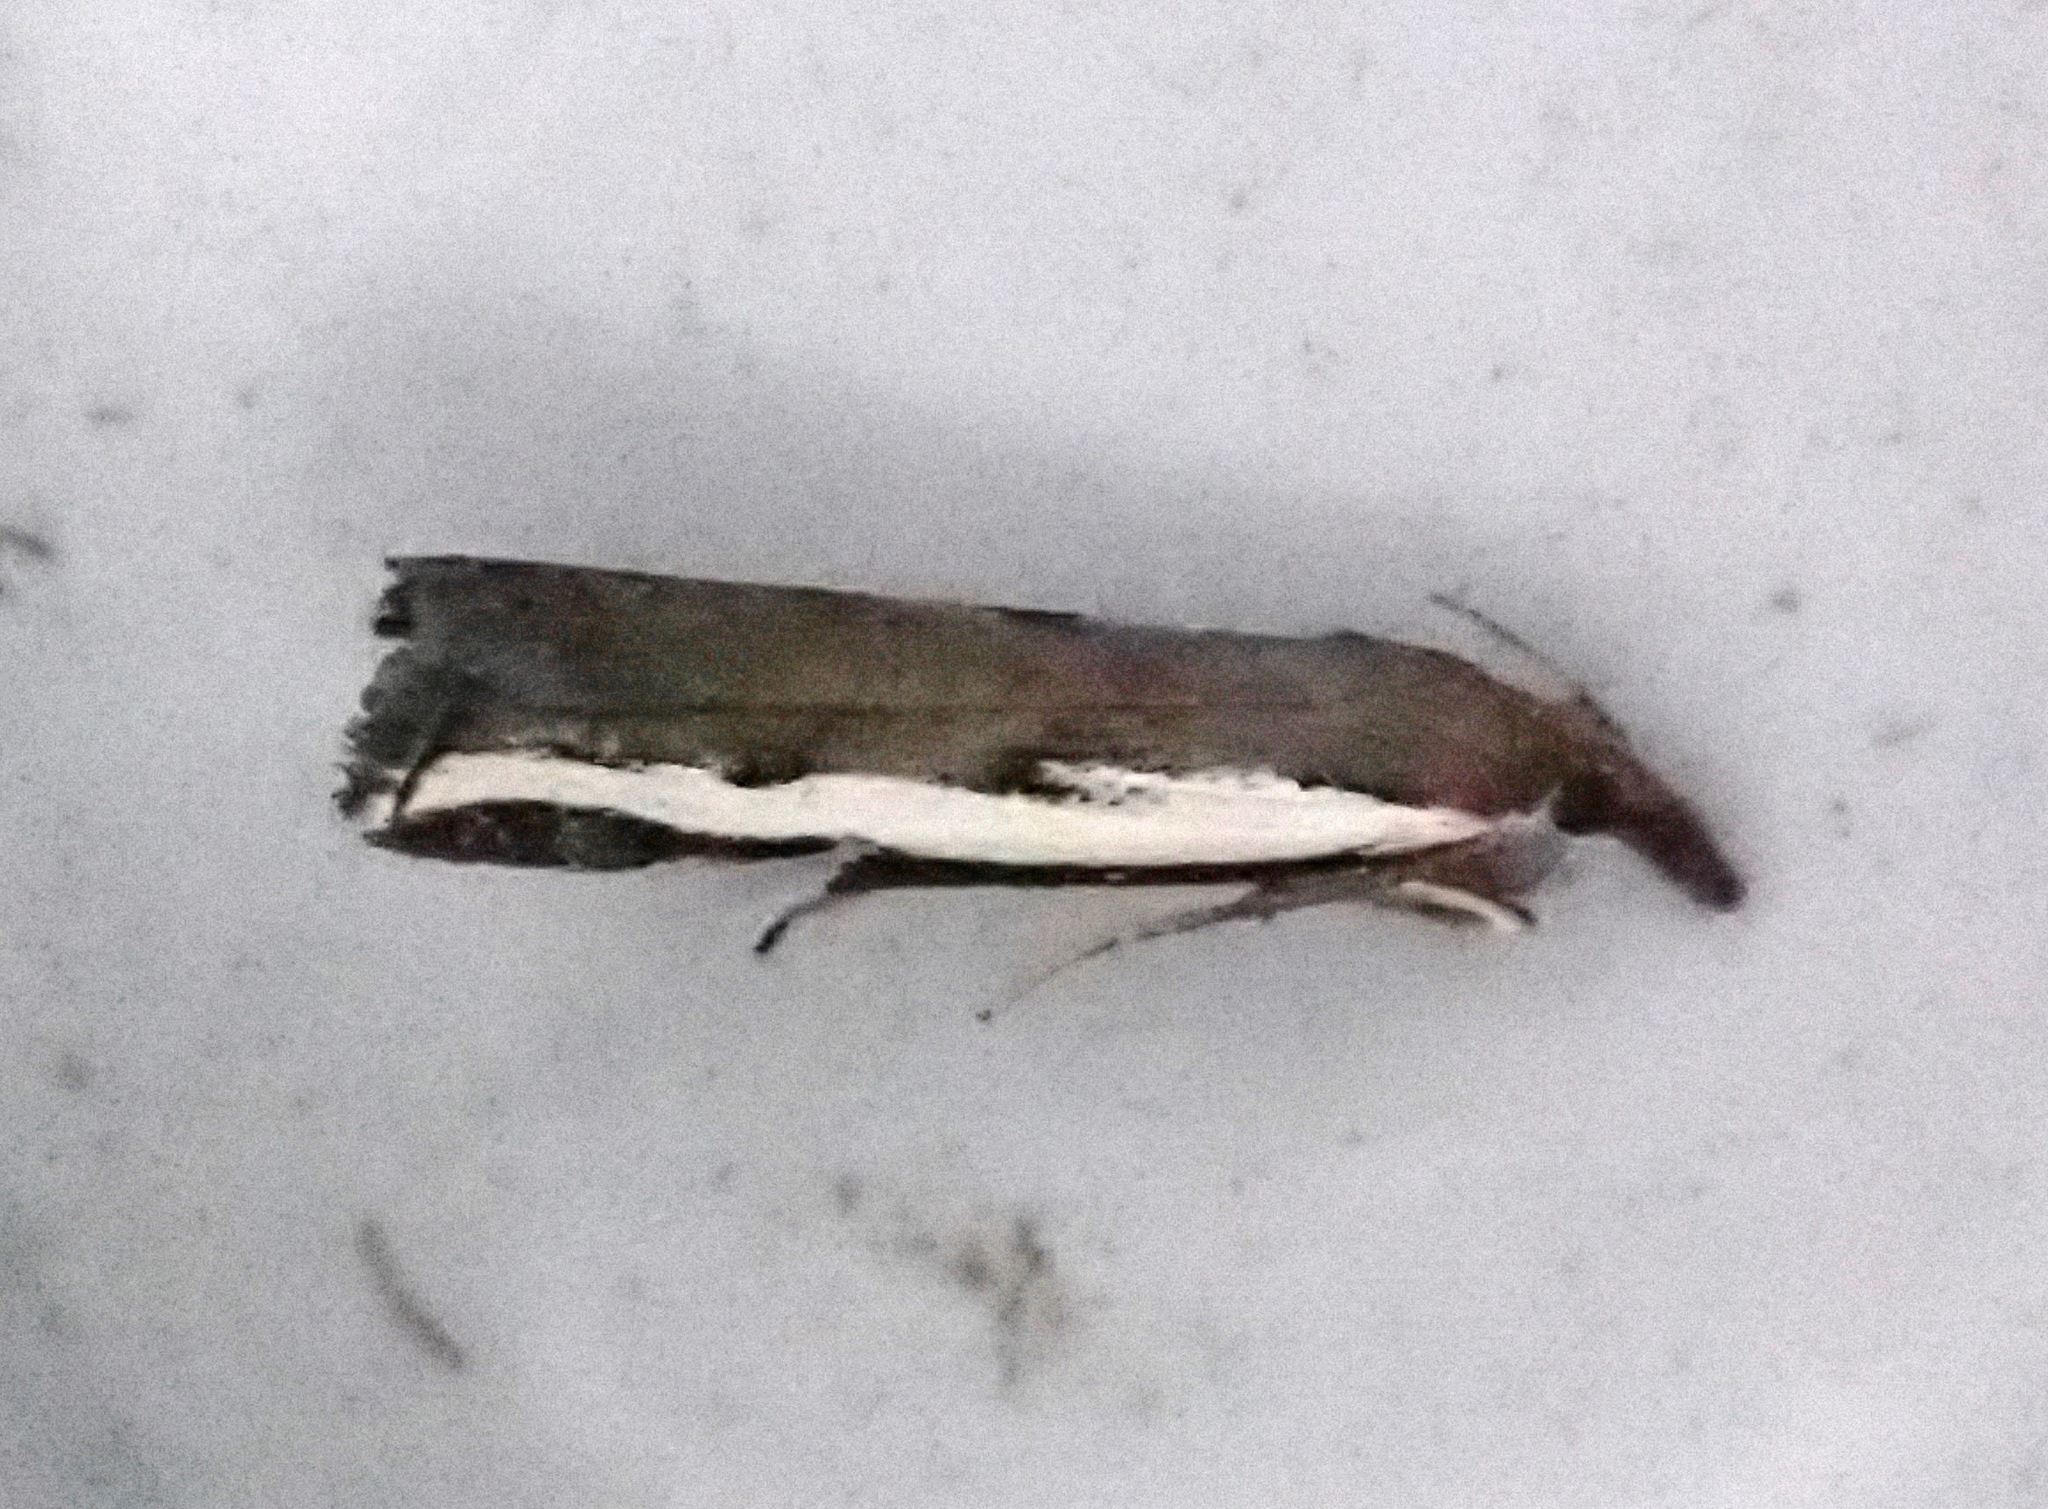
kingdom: Animalia
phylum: Arthropoda
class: Insecta
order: Lepidoptera
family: Crambidae
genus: Orocrambus
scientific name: Orocrambus flexuosellus
